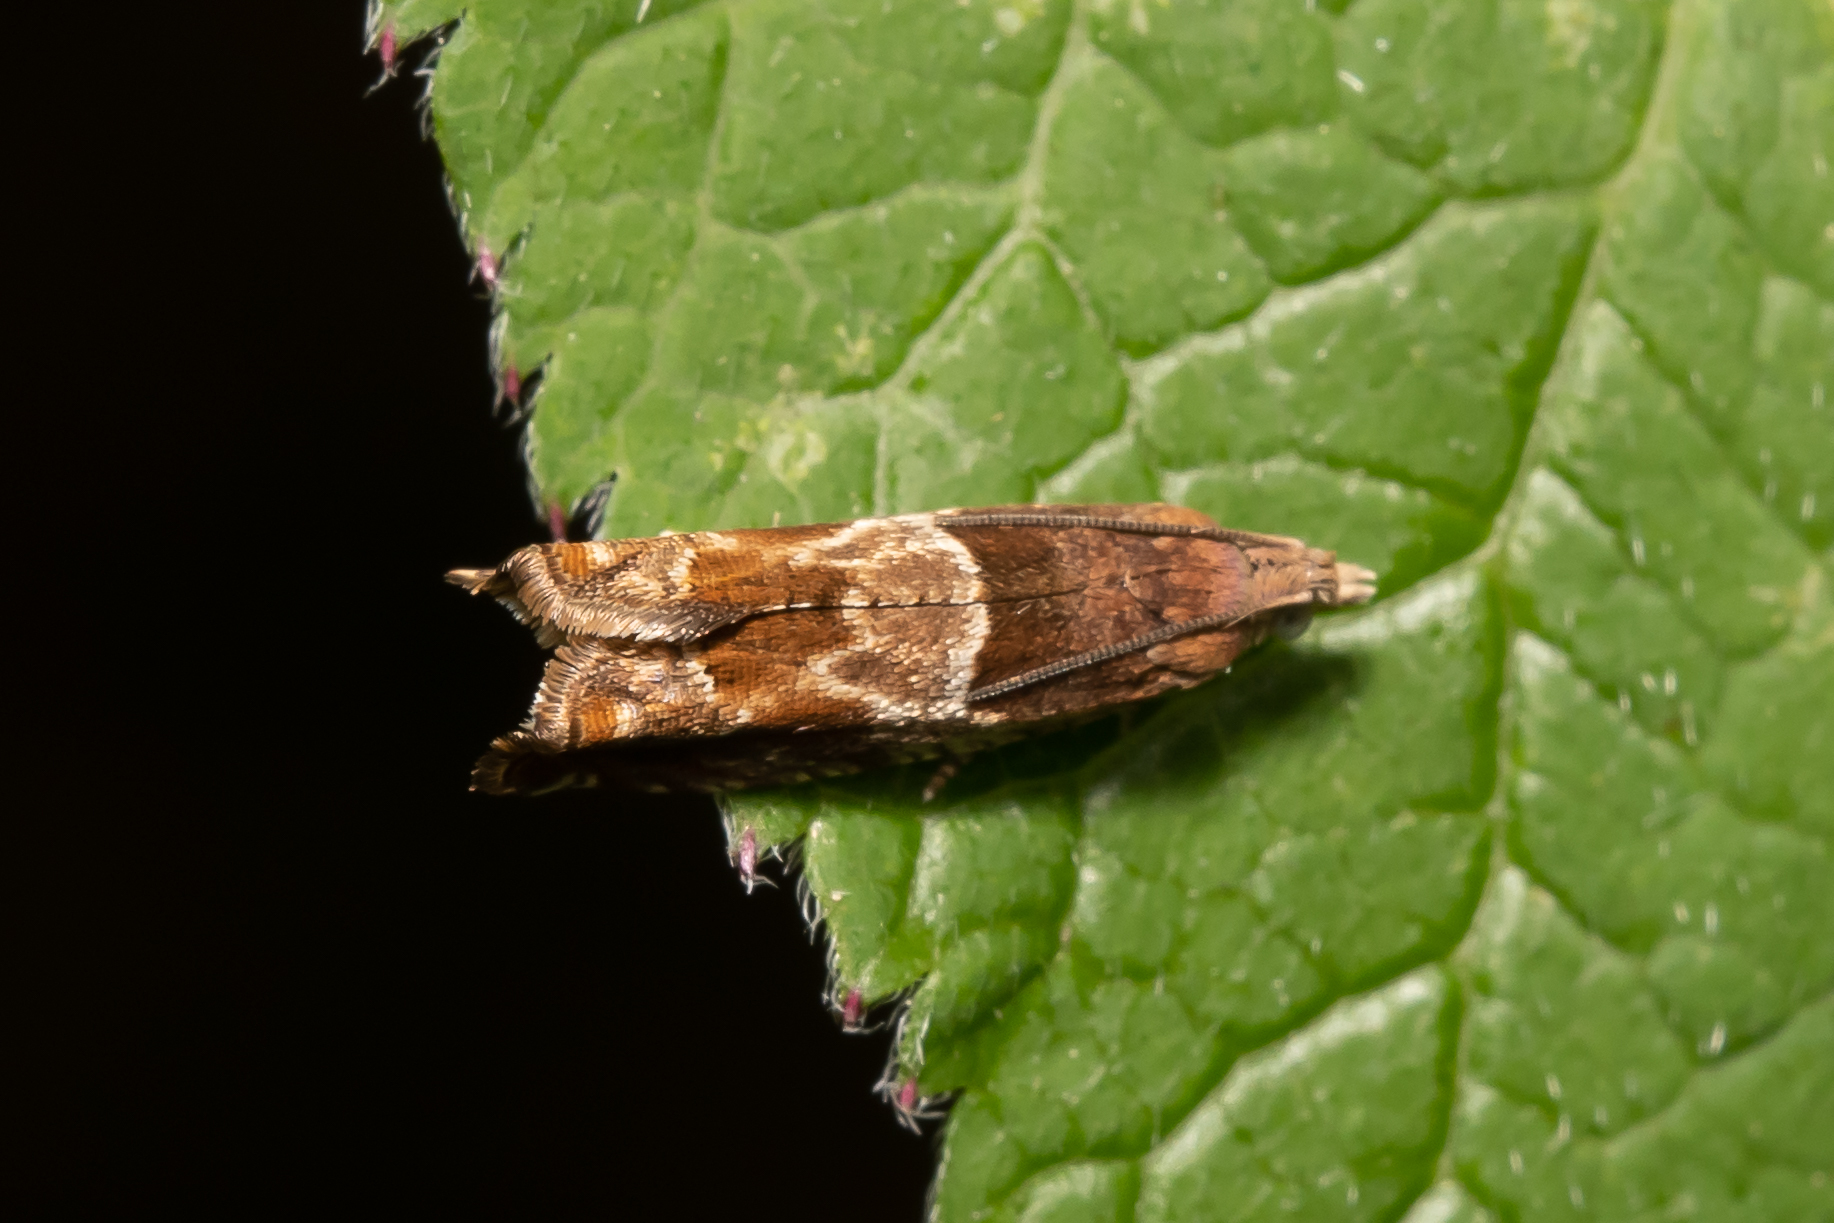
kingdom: Animalia
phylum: Arthropoda
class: Insecta
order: Lepidoptera
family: Tortricidae
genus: Epinotia
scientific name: Epinotia tenerana
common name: Nut bud moth
